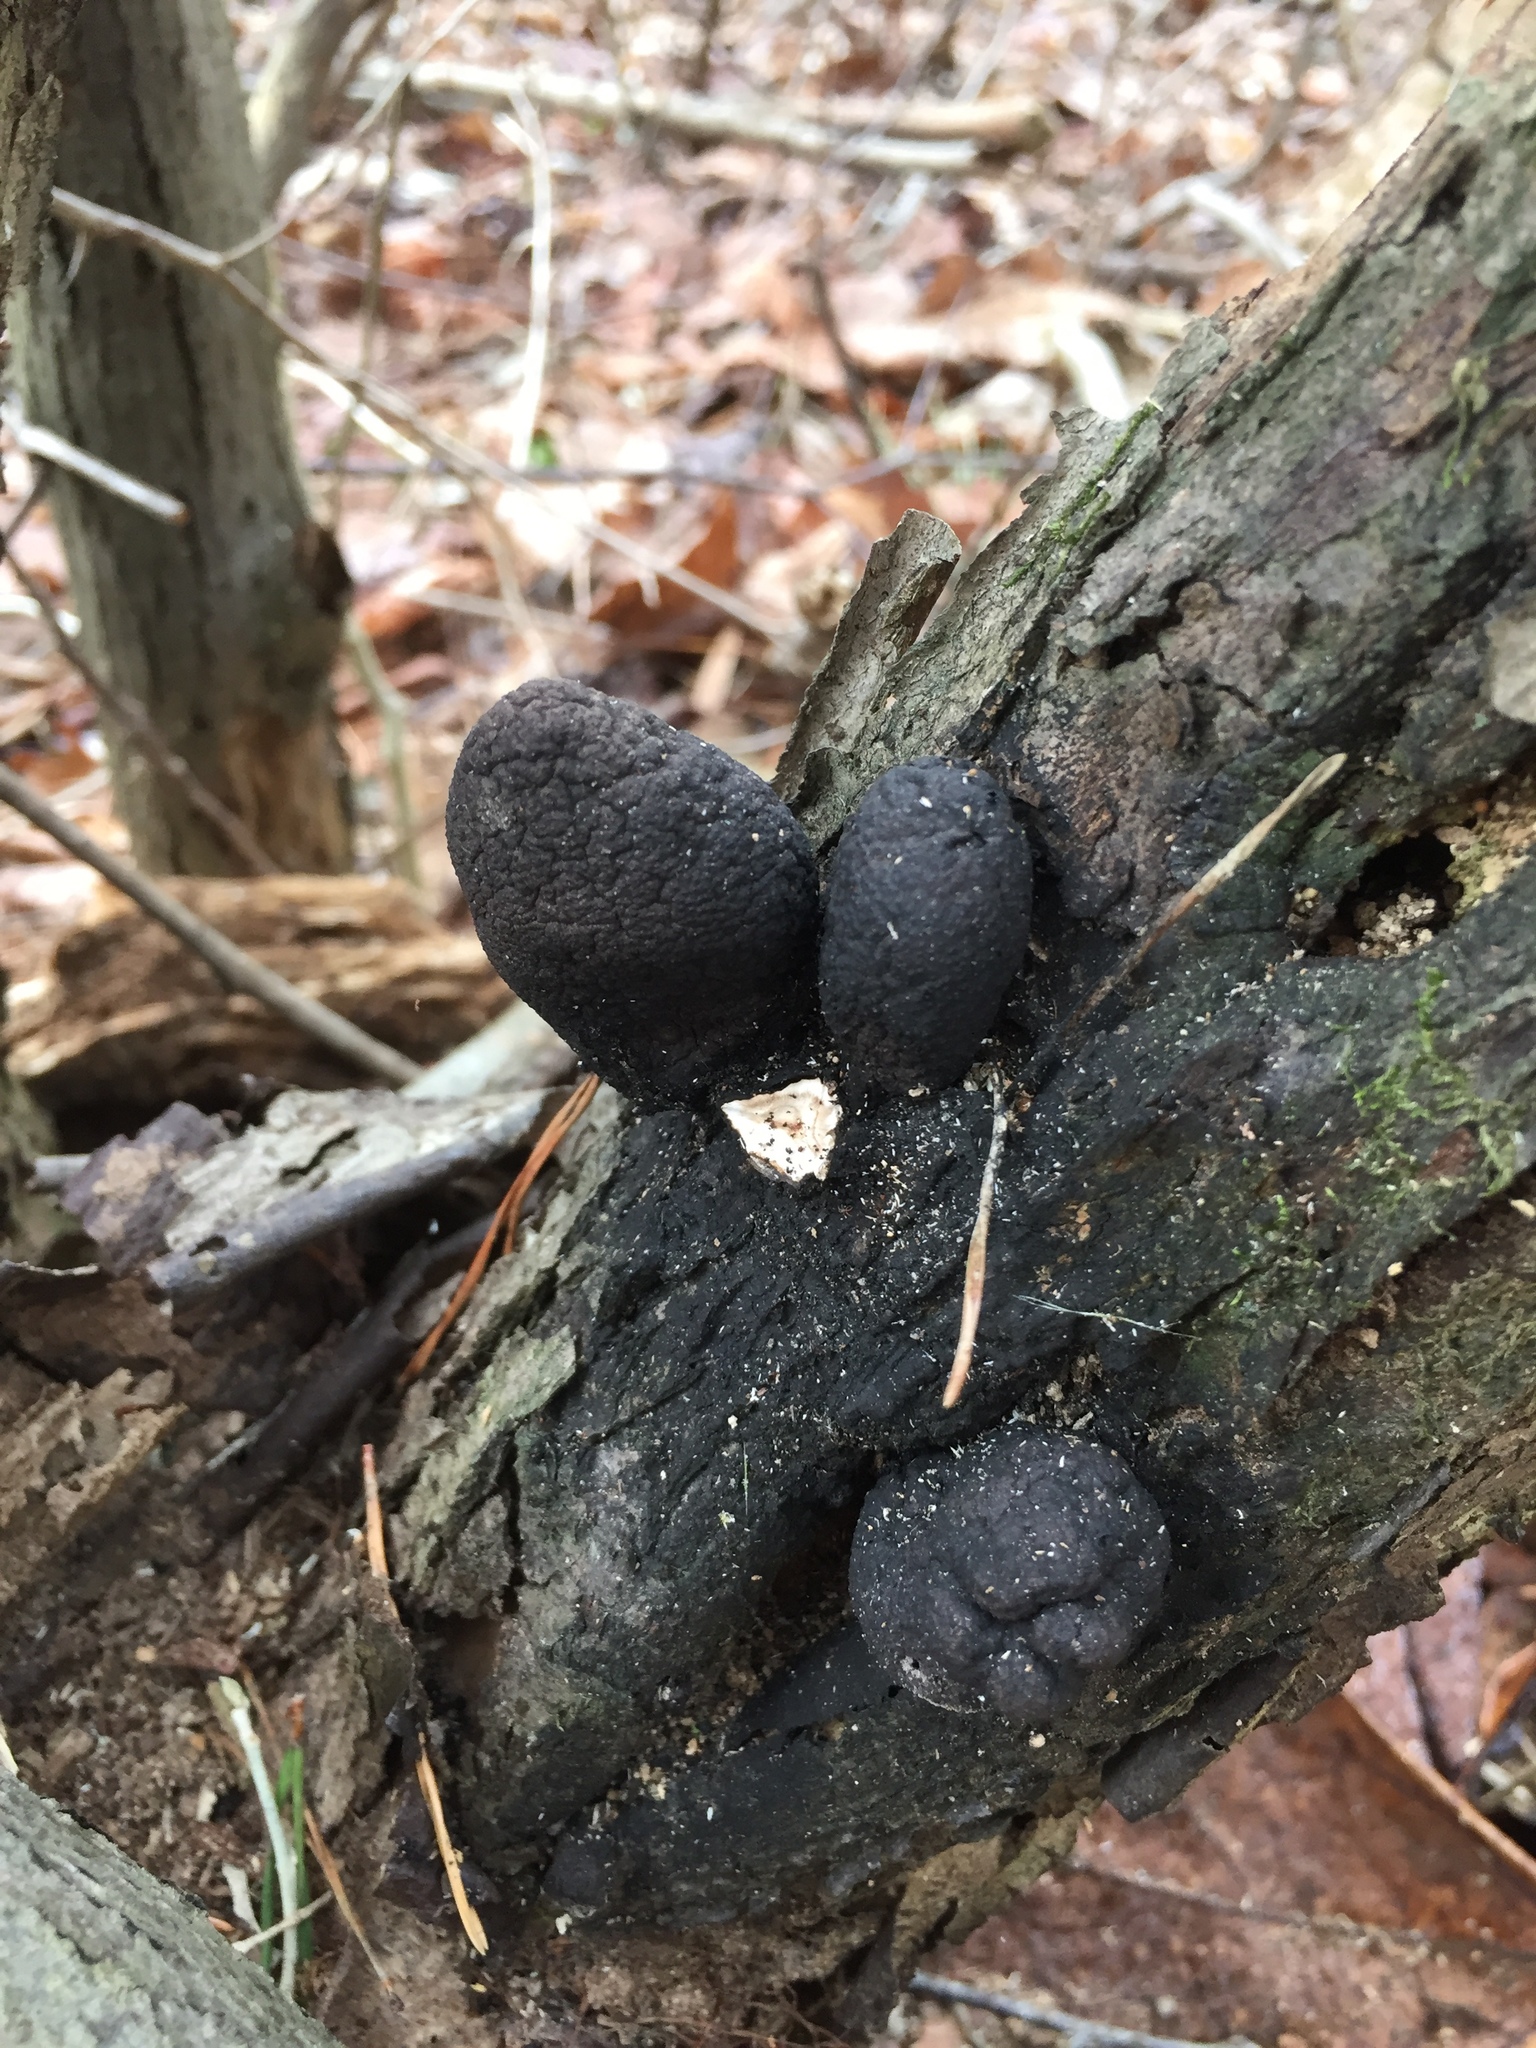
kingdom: Fungi
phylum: Ascomycota
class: Sordariomycetes
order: Xylariales
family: Xylariaceae
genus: Xylaria
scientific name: Xylaria polymorpha
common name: Dead man's fingers
